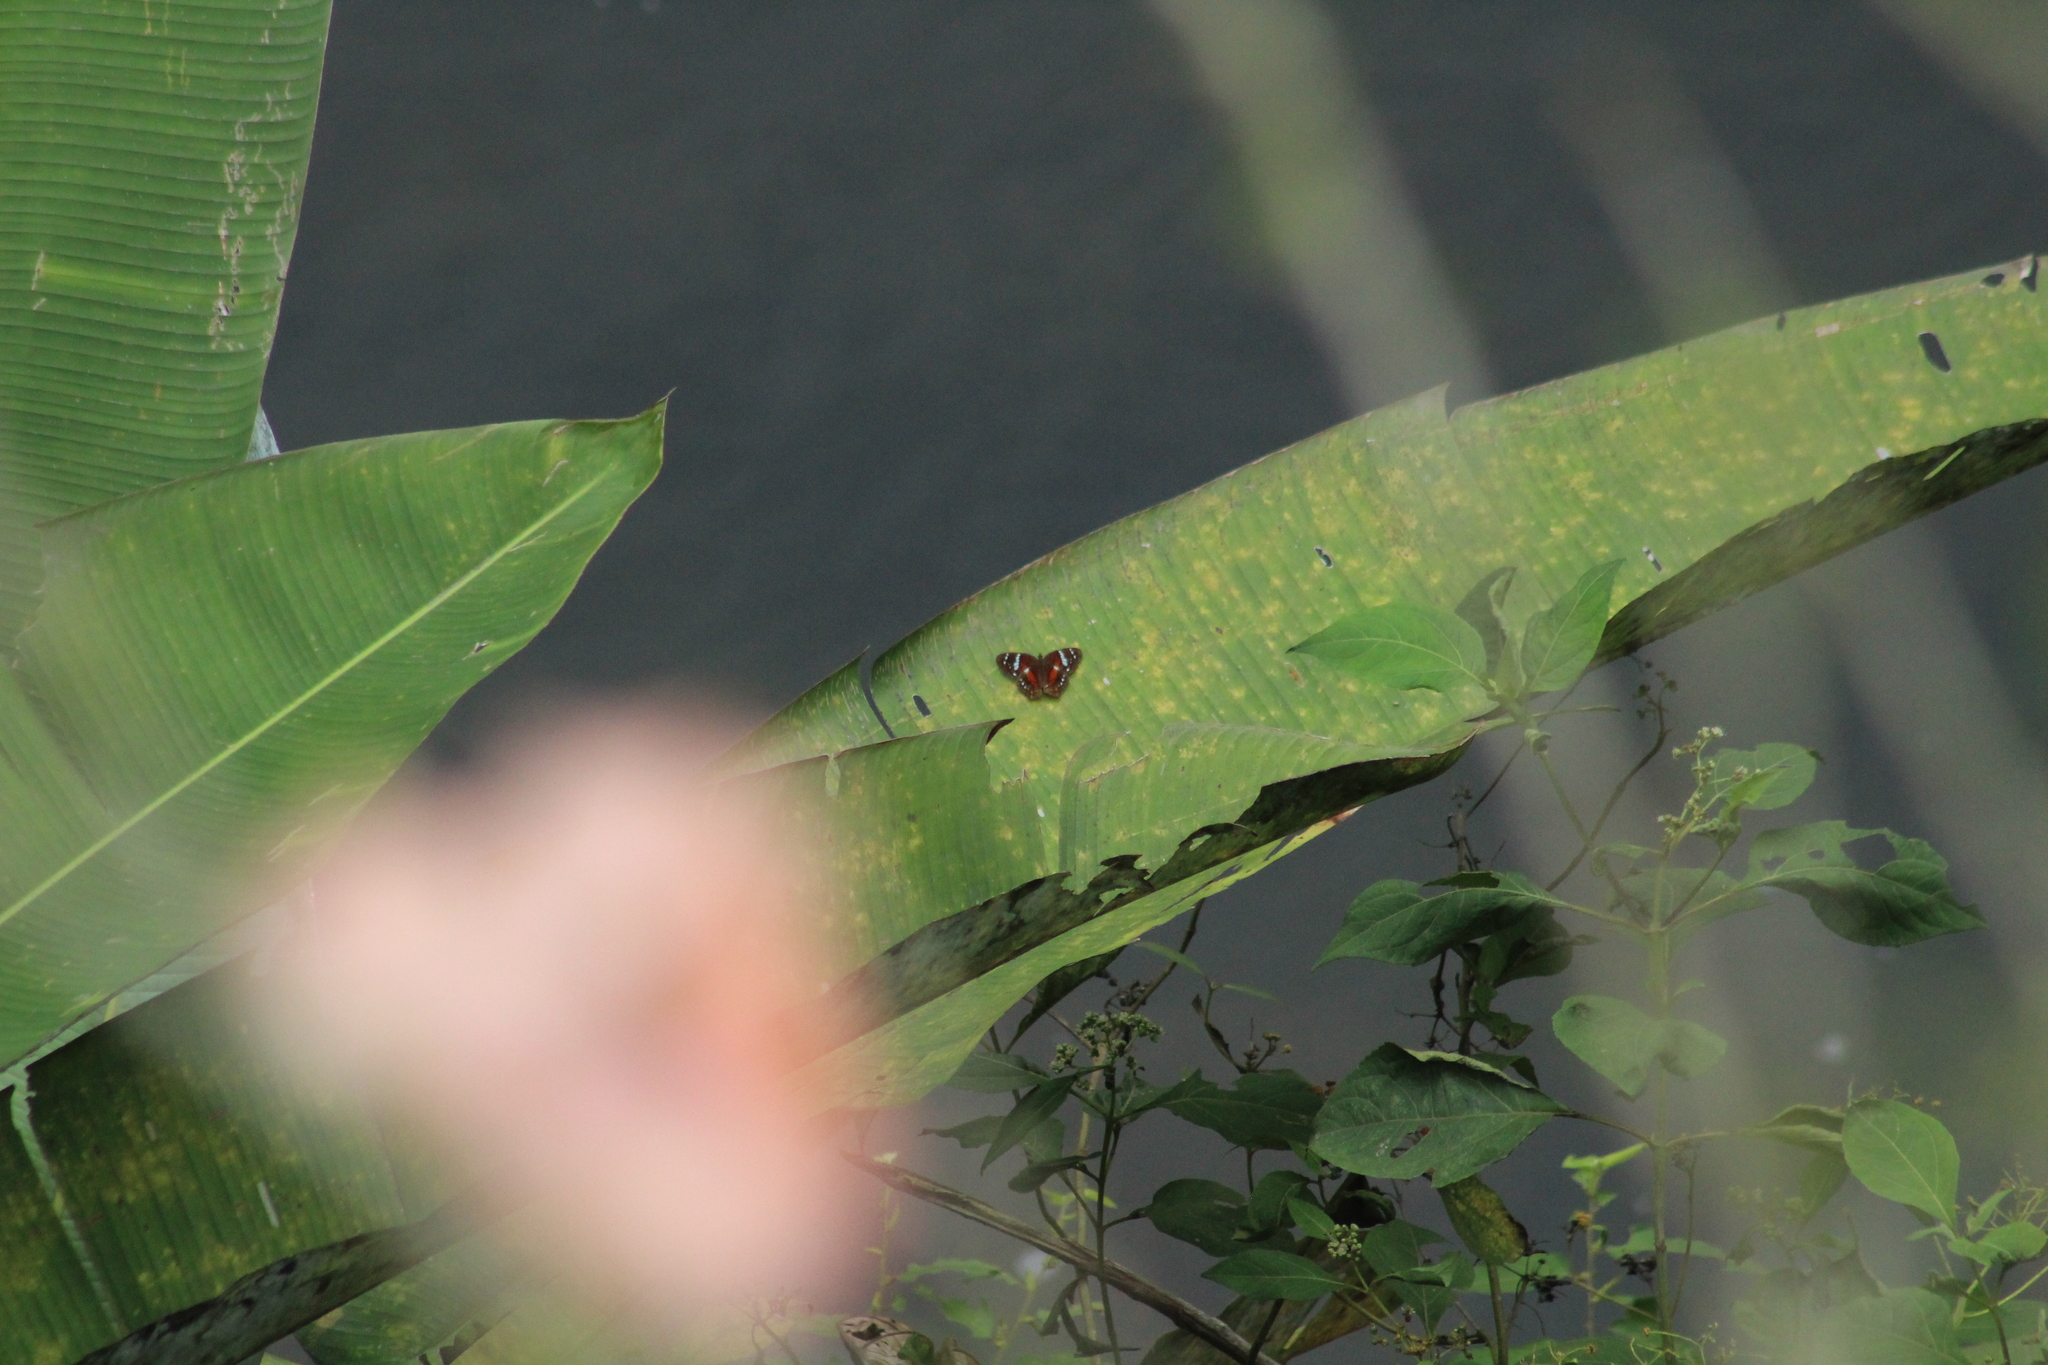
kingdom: Animalia
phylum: Arthropoda
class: Insecta
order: Lepidoptera
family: Nymphalidae
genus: Anartia
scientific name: Anartia amathea
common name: Red peacock
